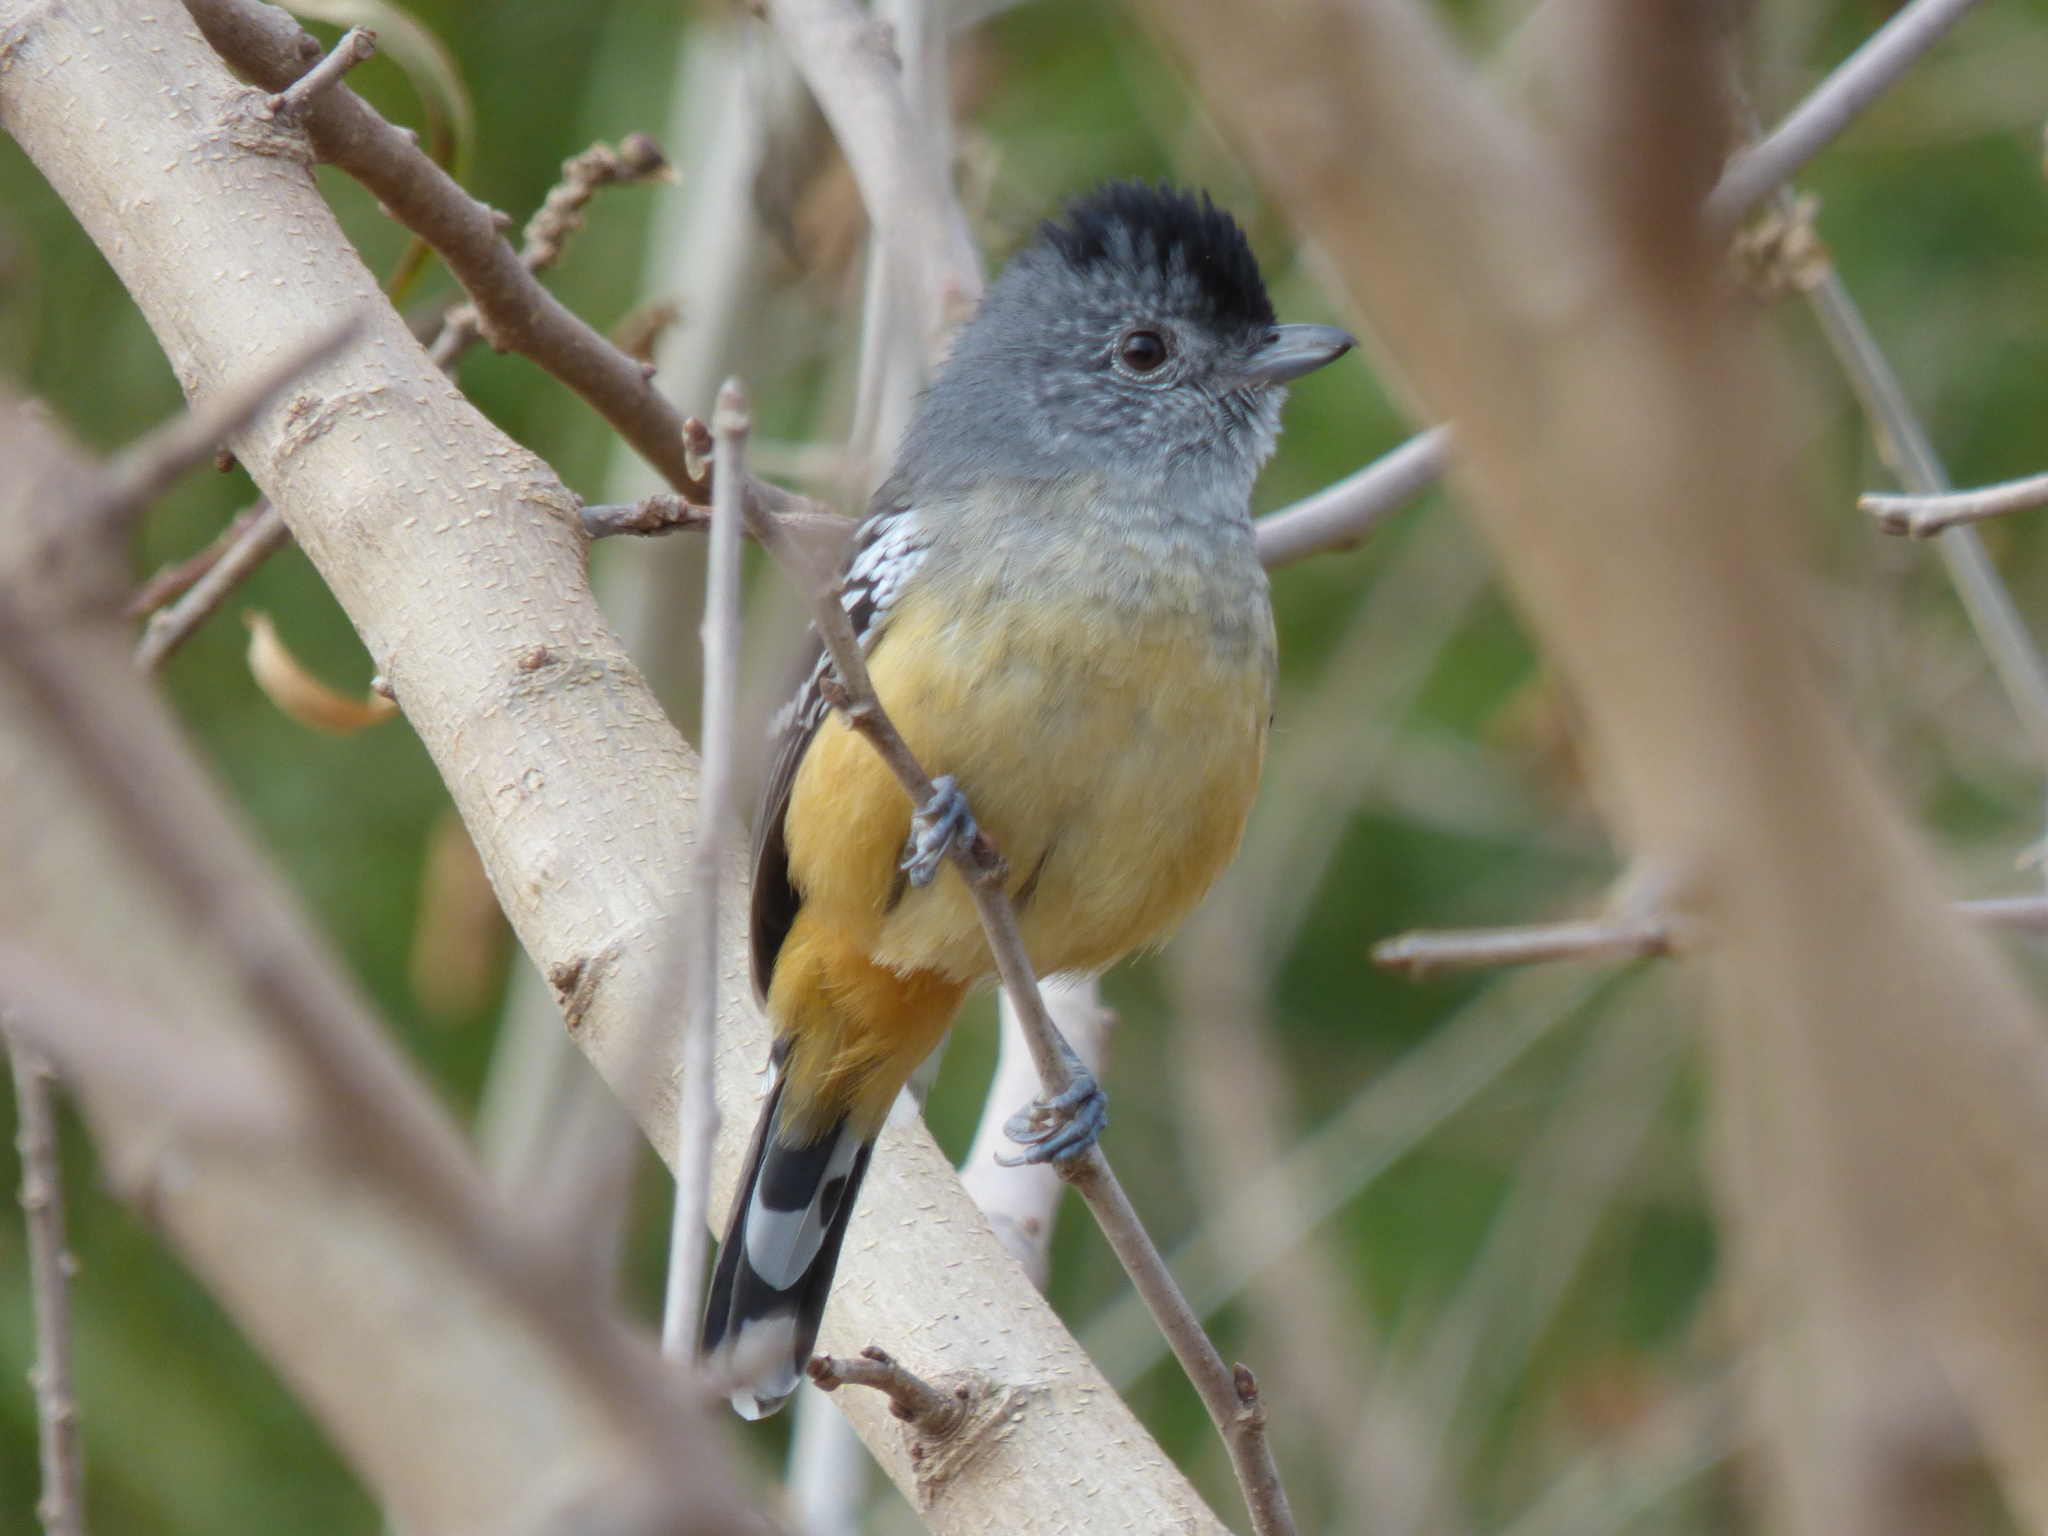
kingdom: Animalia
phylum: Chordata
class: Aves
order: Passeriformes
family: Thamnophilidae
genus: Thamnophilus
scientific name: Thamnophilus caerulescens
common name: Variable antshrike
